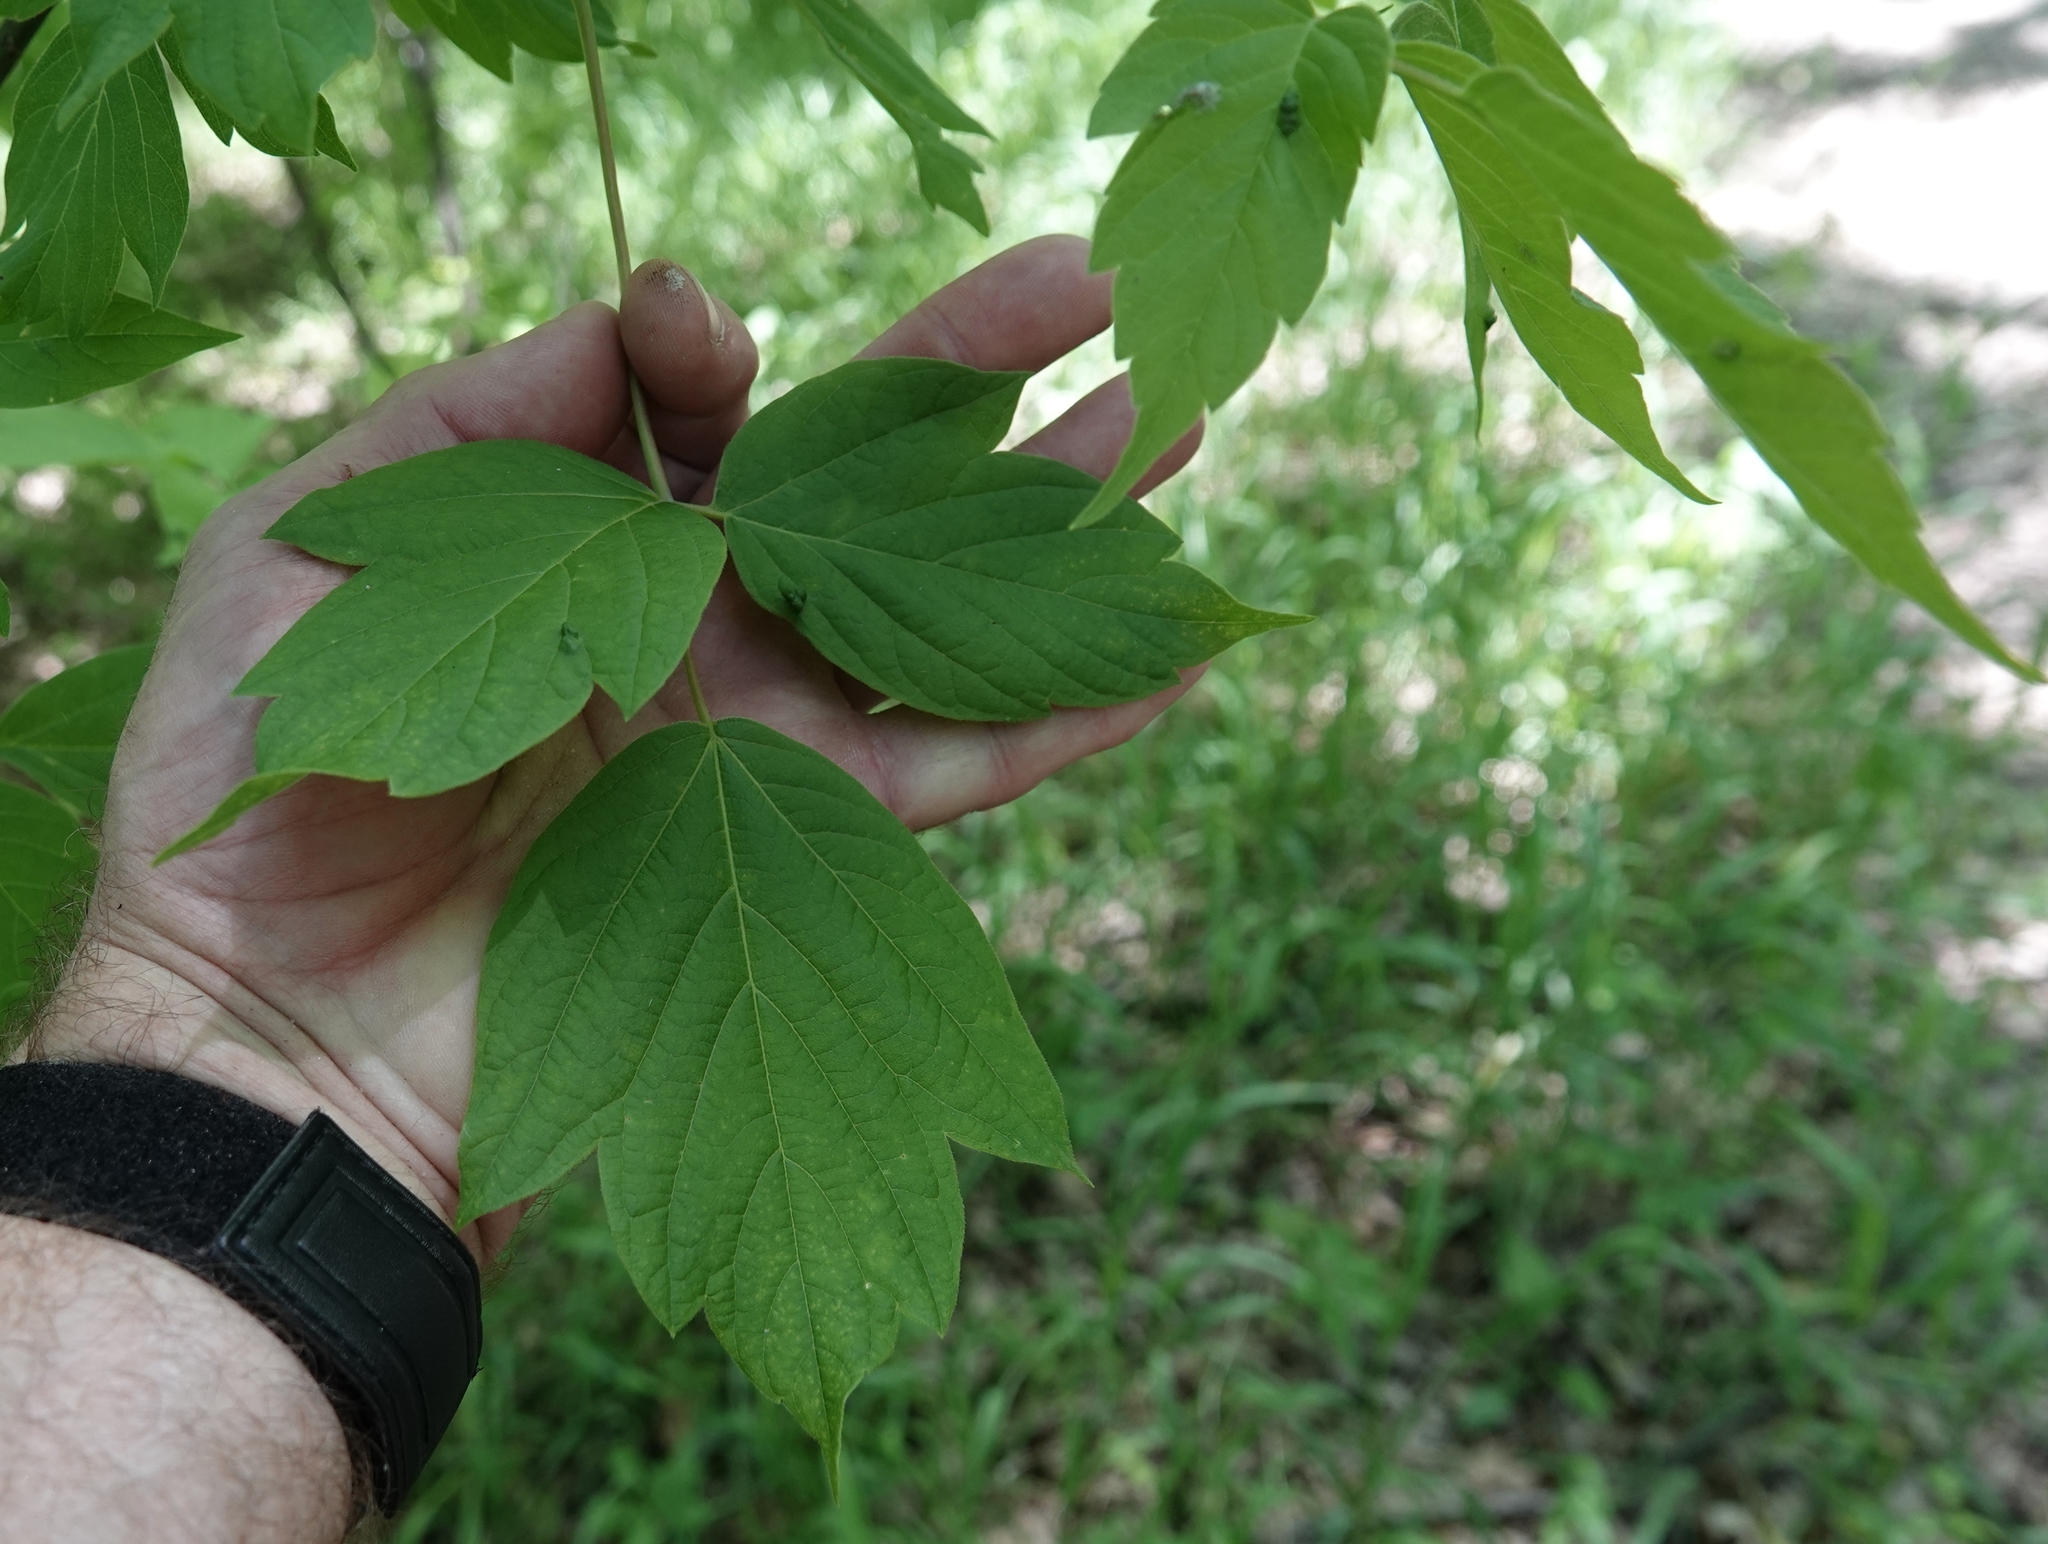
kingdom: Plantae
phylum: Tracheophyta
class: Magnoliopsida
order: Sapindales
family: Sapindaceae
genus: Acer
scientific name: Acer negundo
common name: Ashleaf maple
